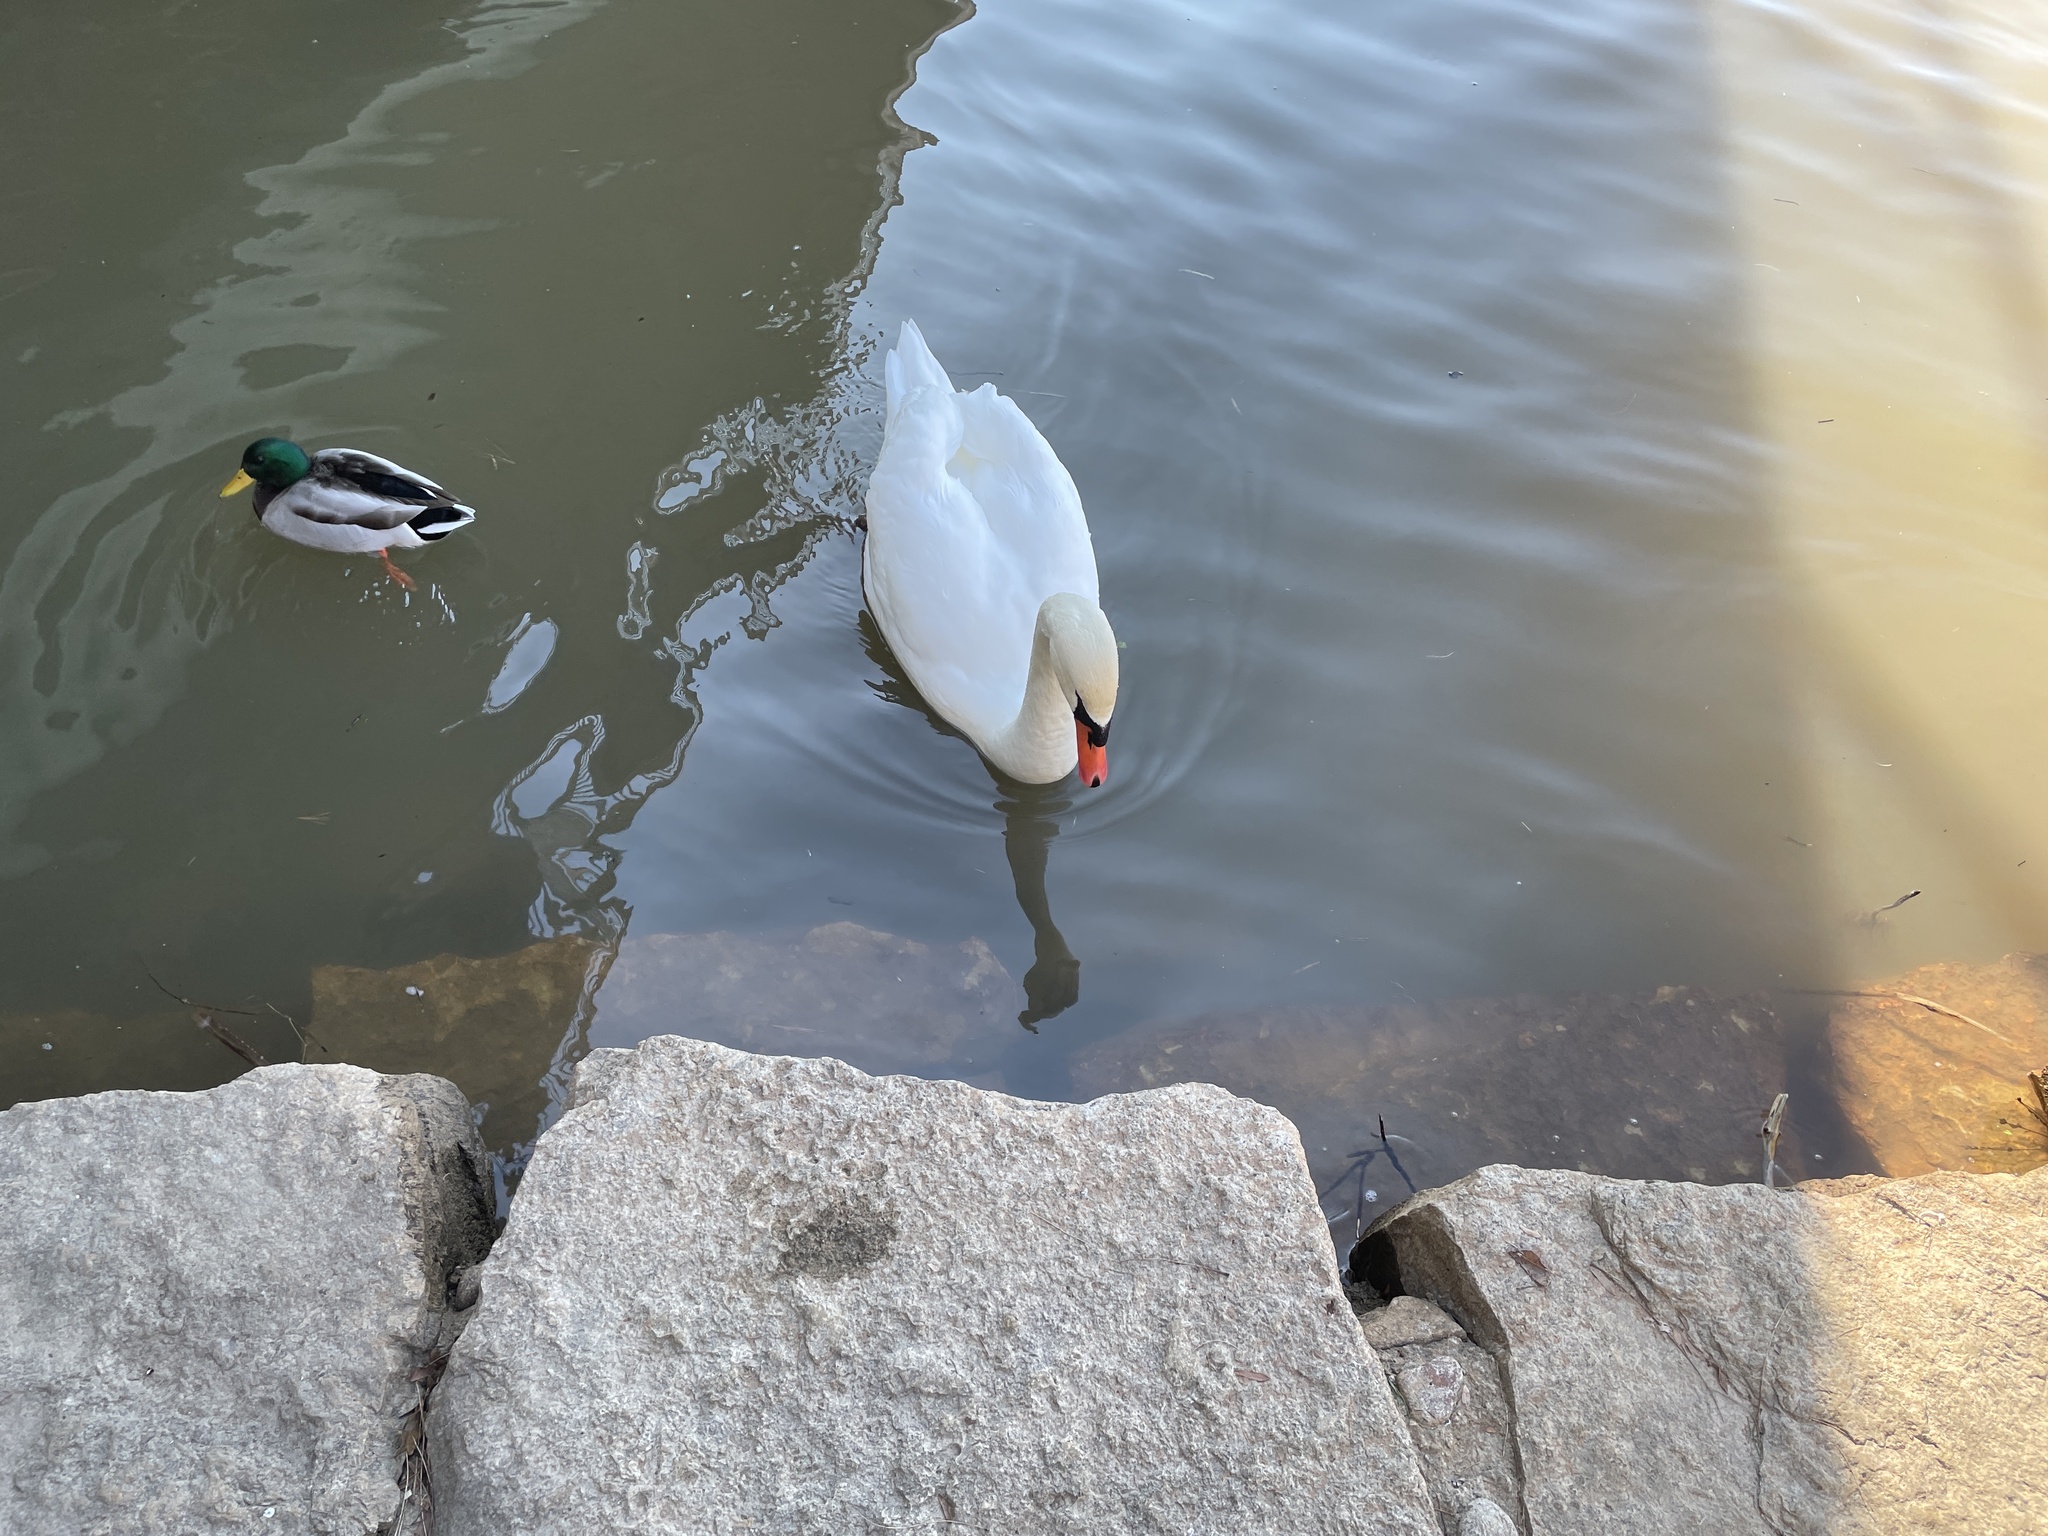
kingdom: Animalia
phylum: Chordata
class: Aves
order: Anseriformes
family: Anatidae
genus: Cygnus
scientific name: Cygnus olor
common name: Mute swan
